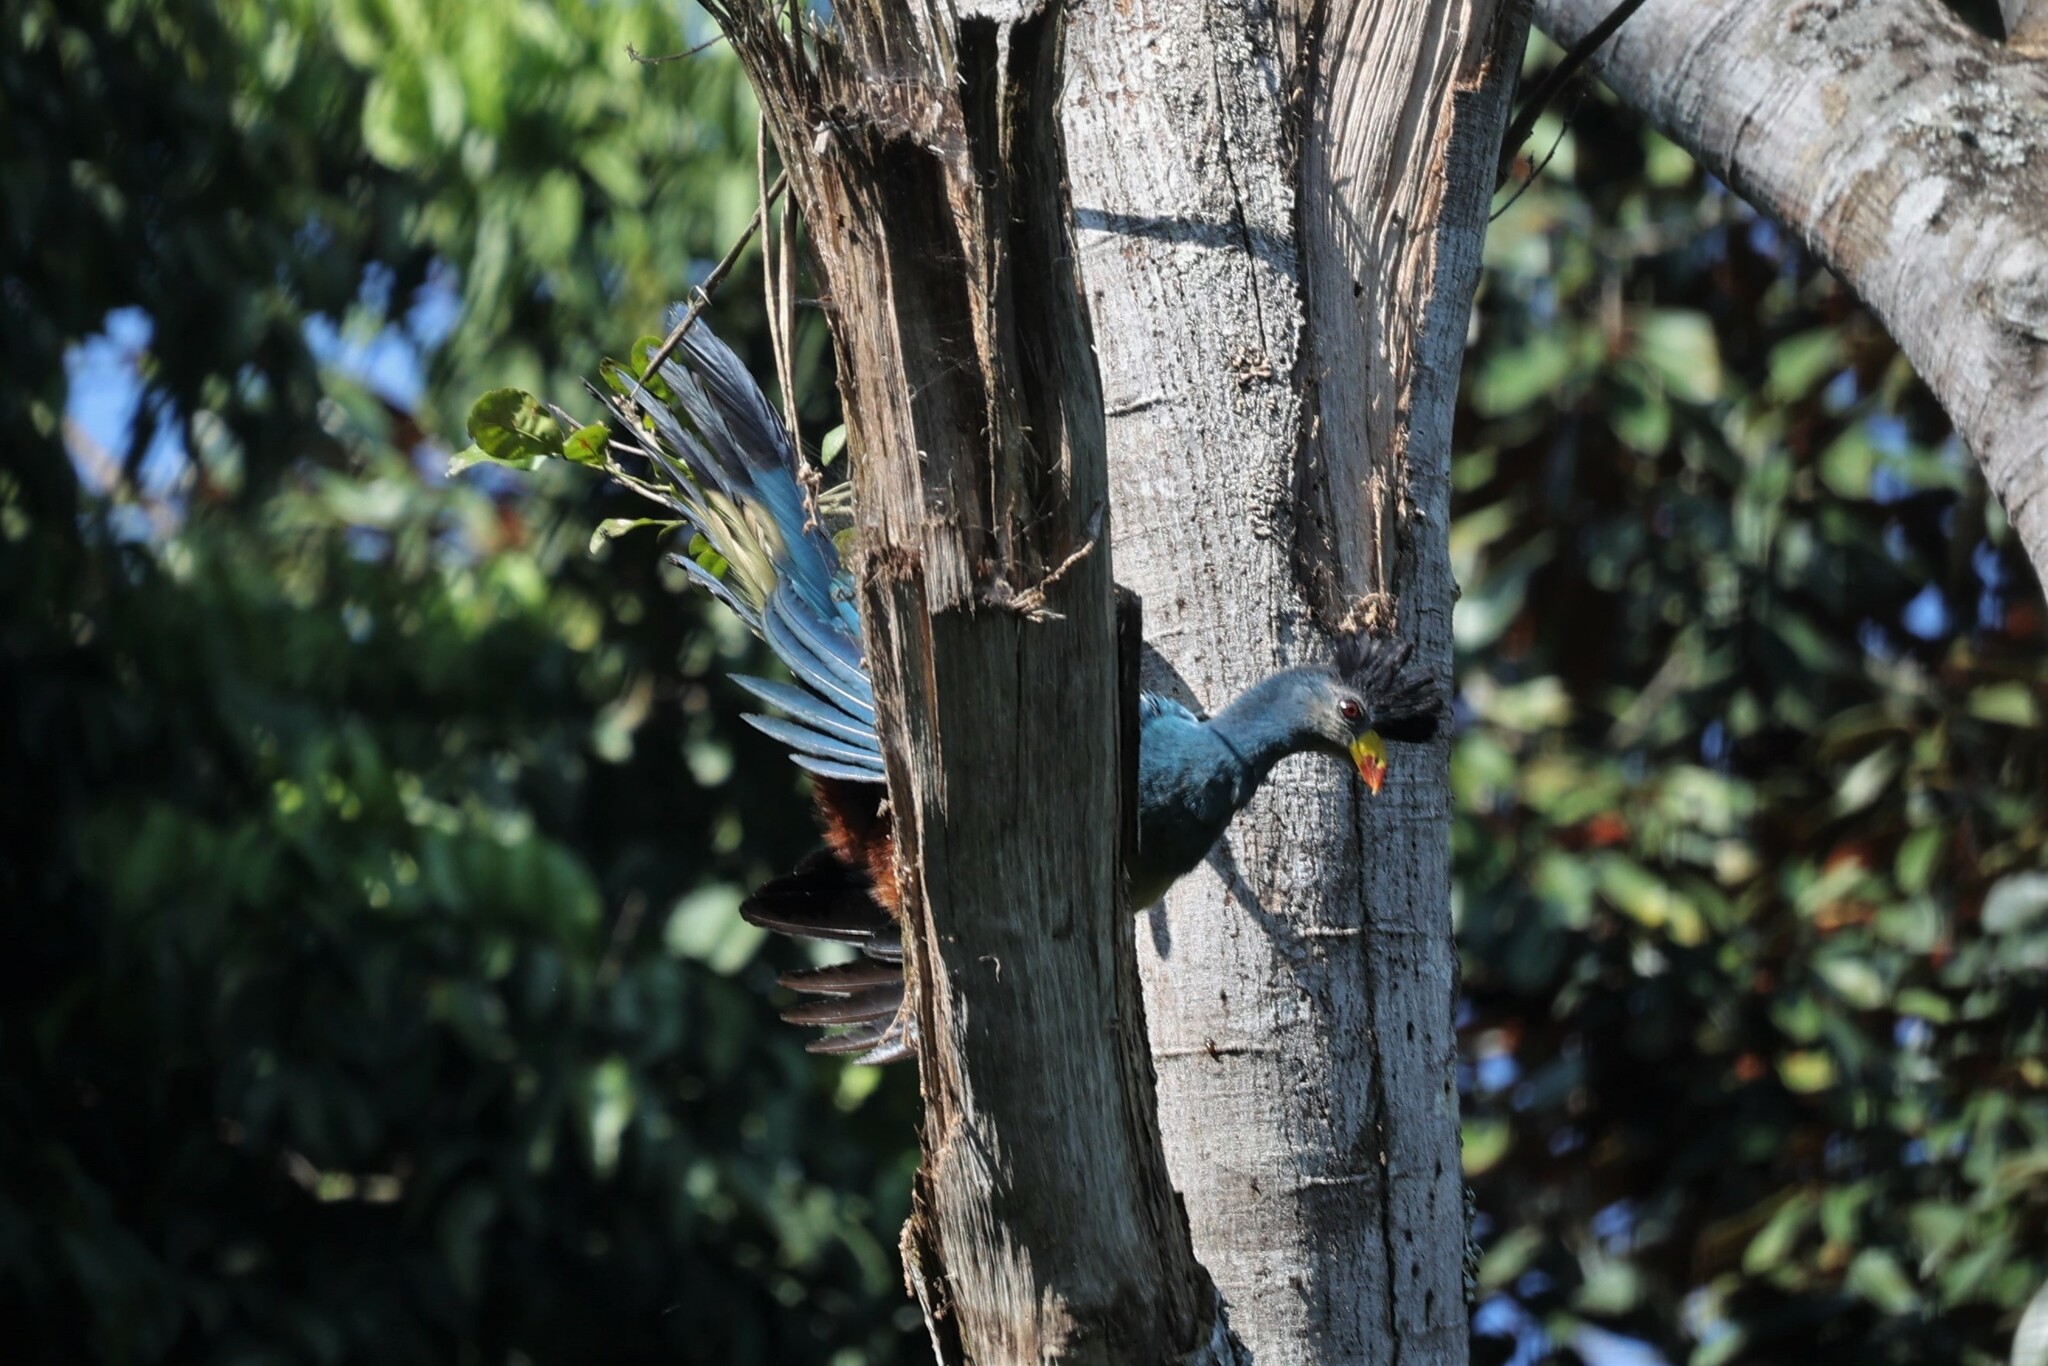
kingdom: Animalia
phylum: Chordata
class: Aves
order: Musophagiformes
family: Musophagidae
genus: Corythaeola
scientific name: Corythaeola cristata
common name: Great blue turaco
